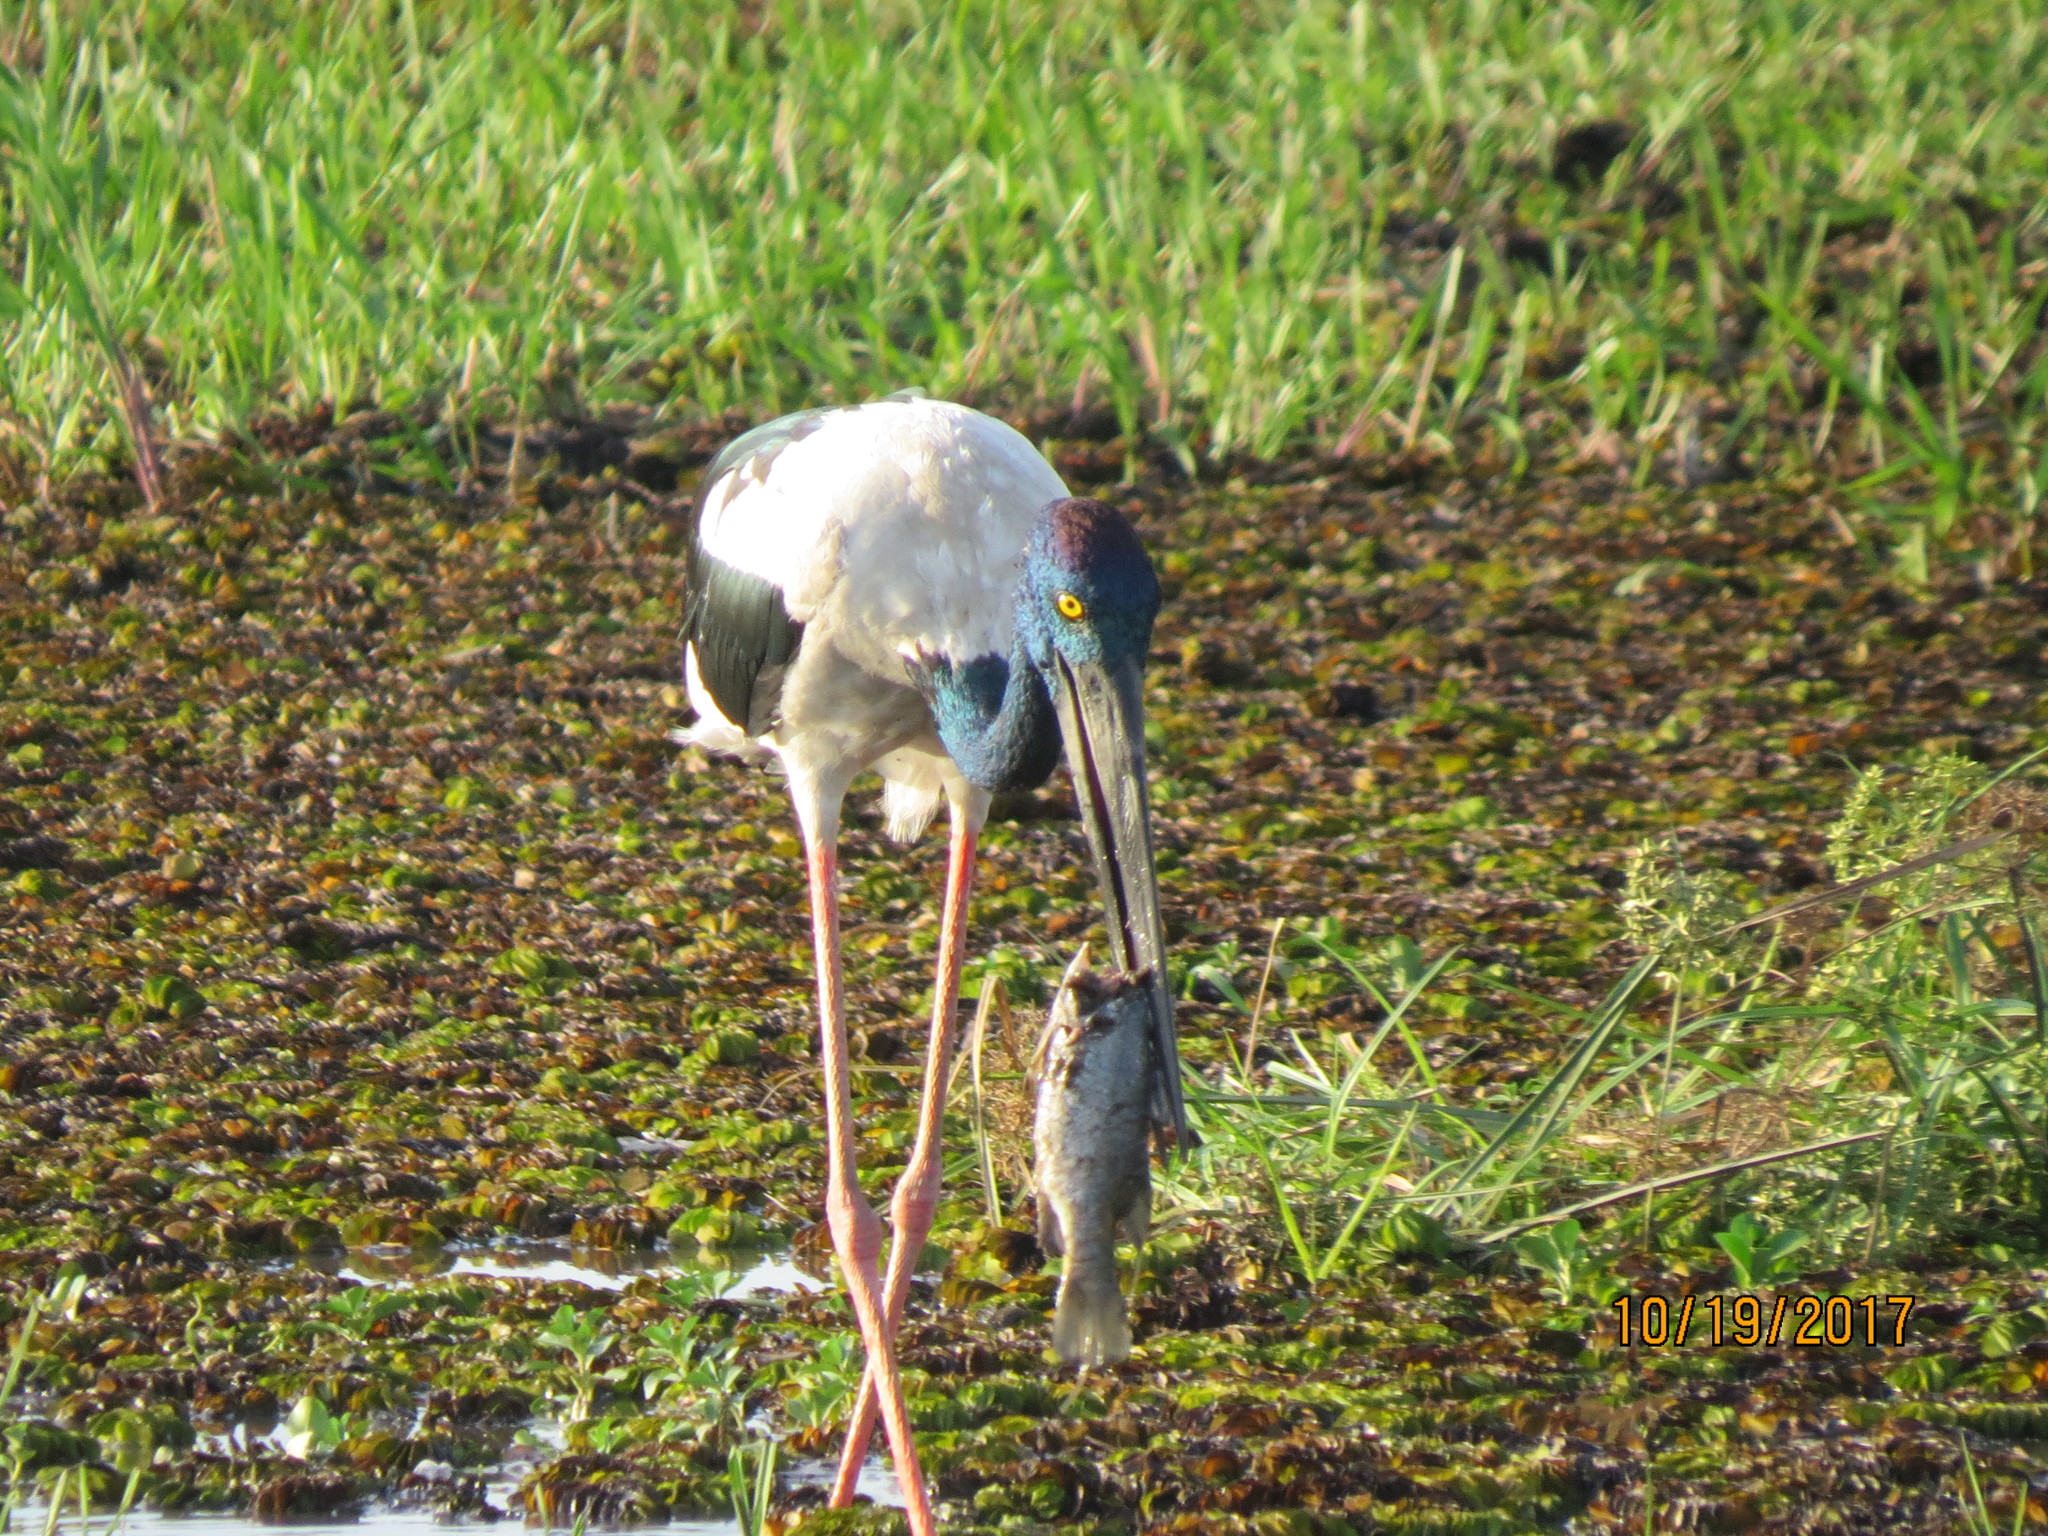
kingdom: Animalia
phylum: Chordata
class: Aves
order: Ciconiiformes
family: Ciconiidae
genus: Ephippiorhynchus
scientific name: Ephippiorhynchus asiaticus
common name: Black-necked stork
